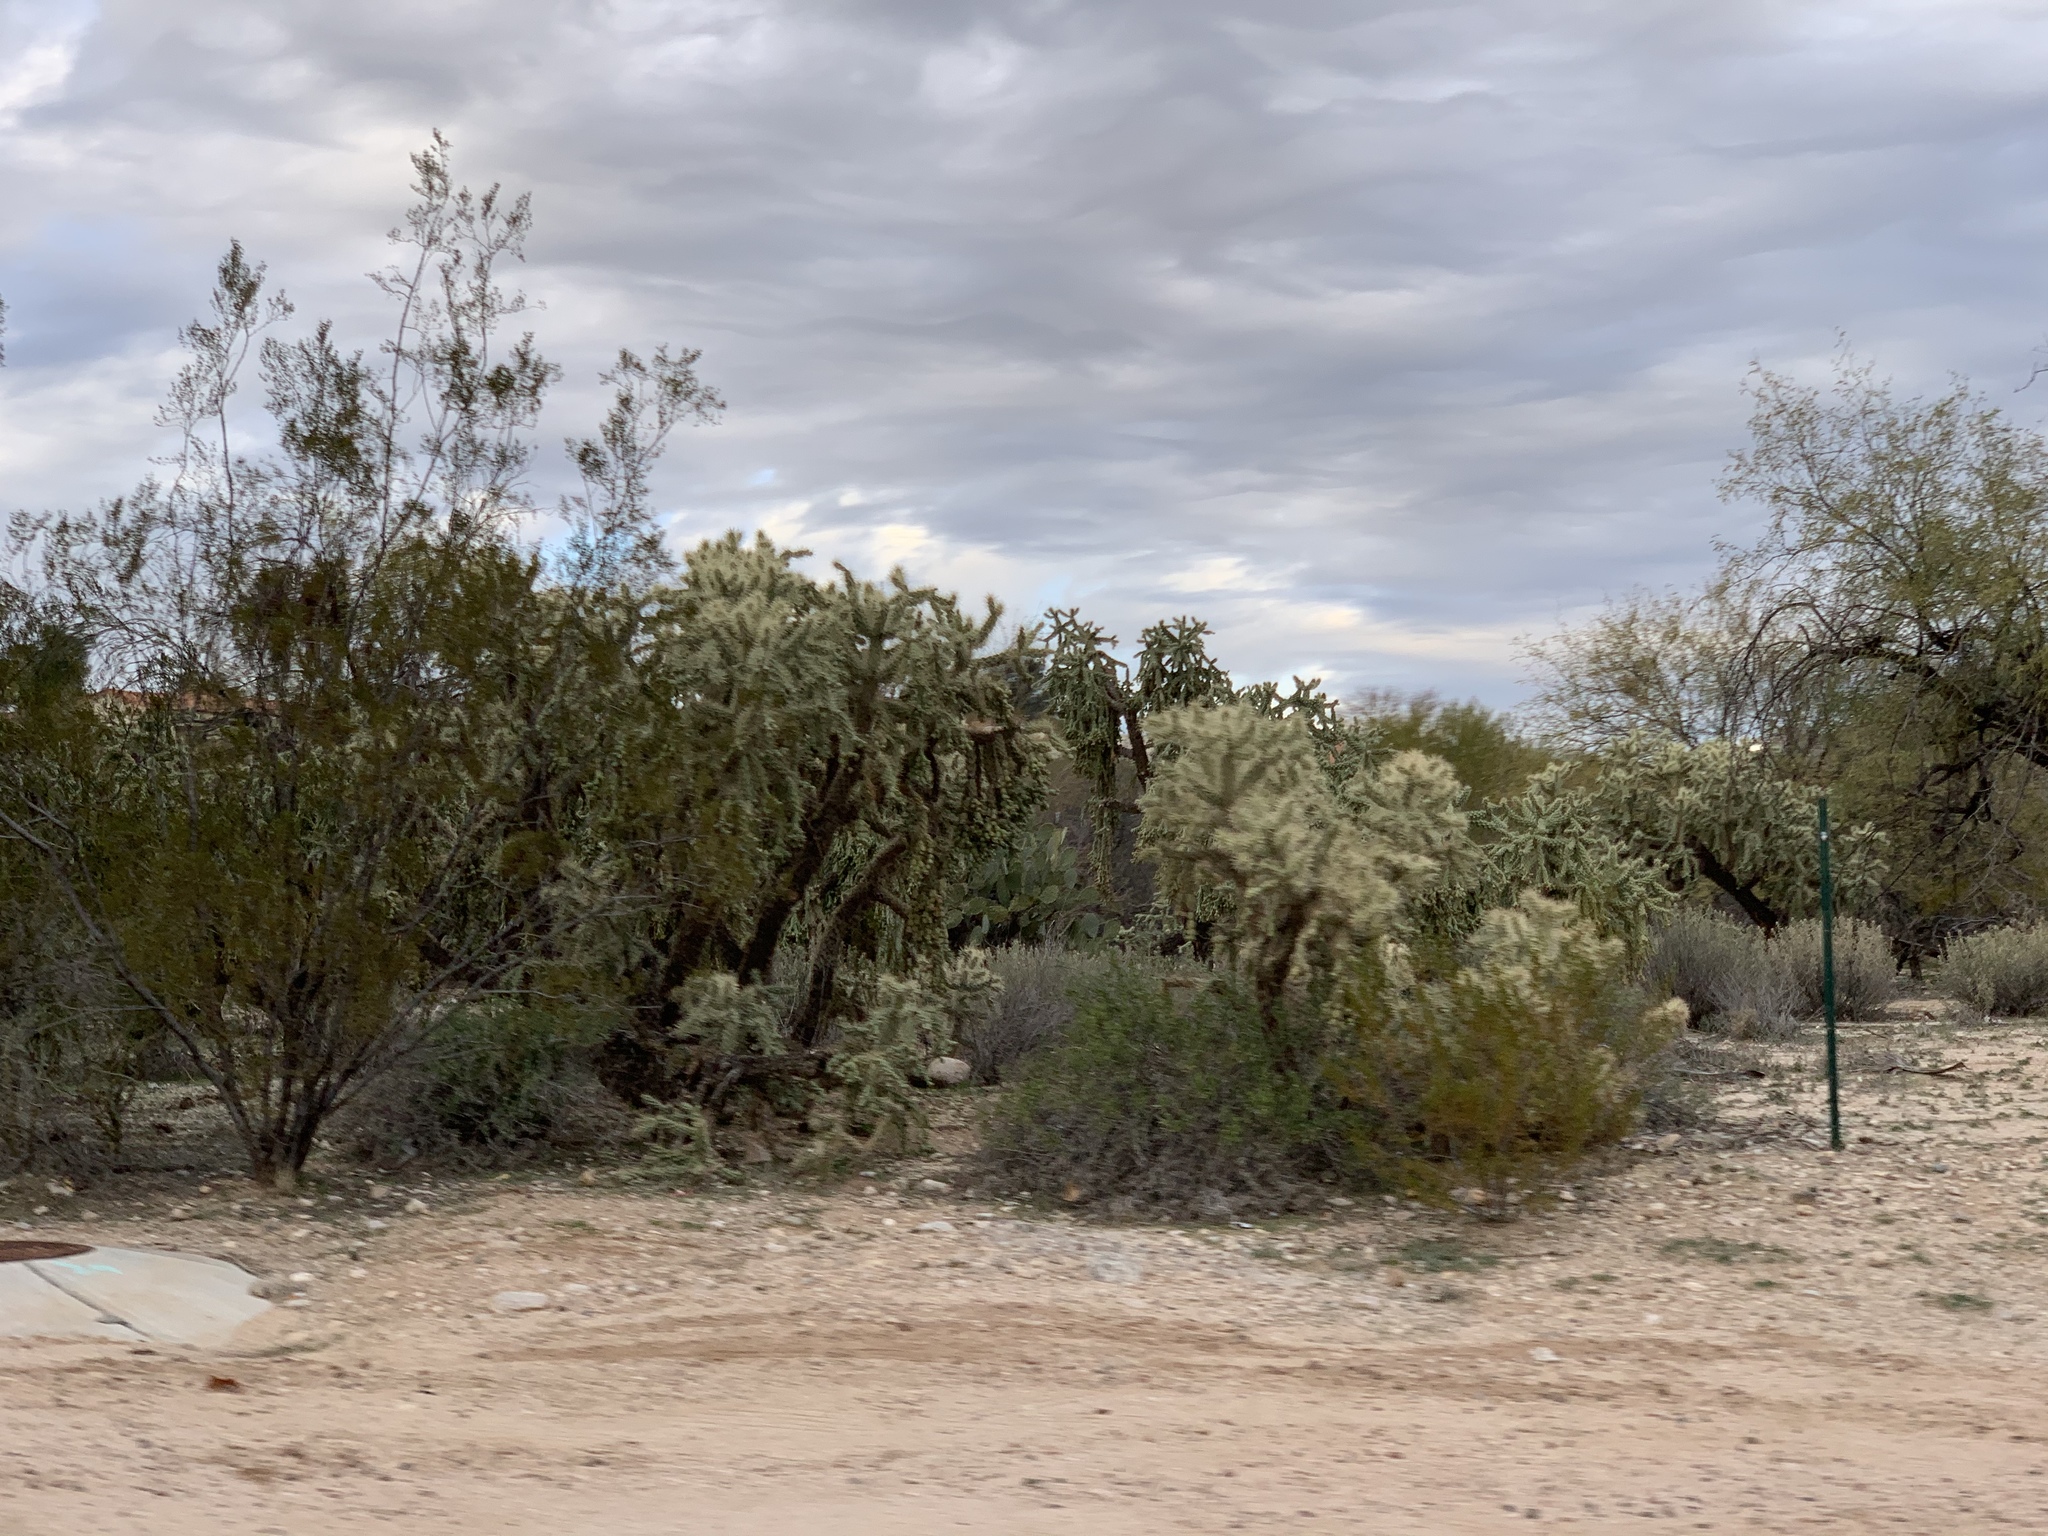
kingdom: Plantae
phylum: Tracheophyta
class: Magnoliopsida
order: Caryophyllales
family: Cactaceae
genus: Cylindropuntia
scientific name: Cylindropuntia fulgida
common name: Jumping cholla
